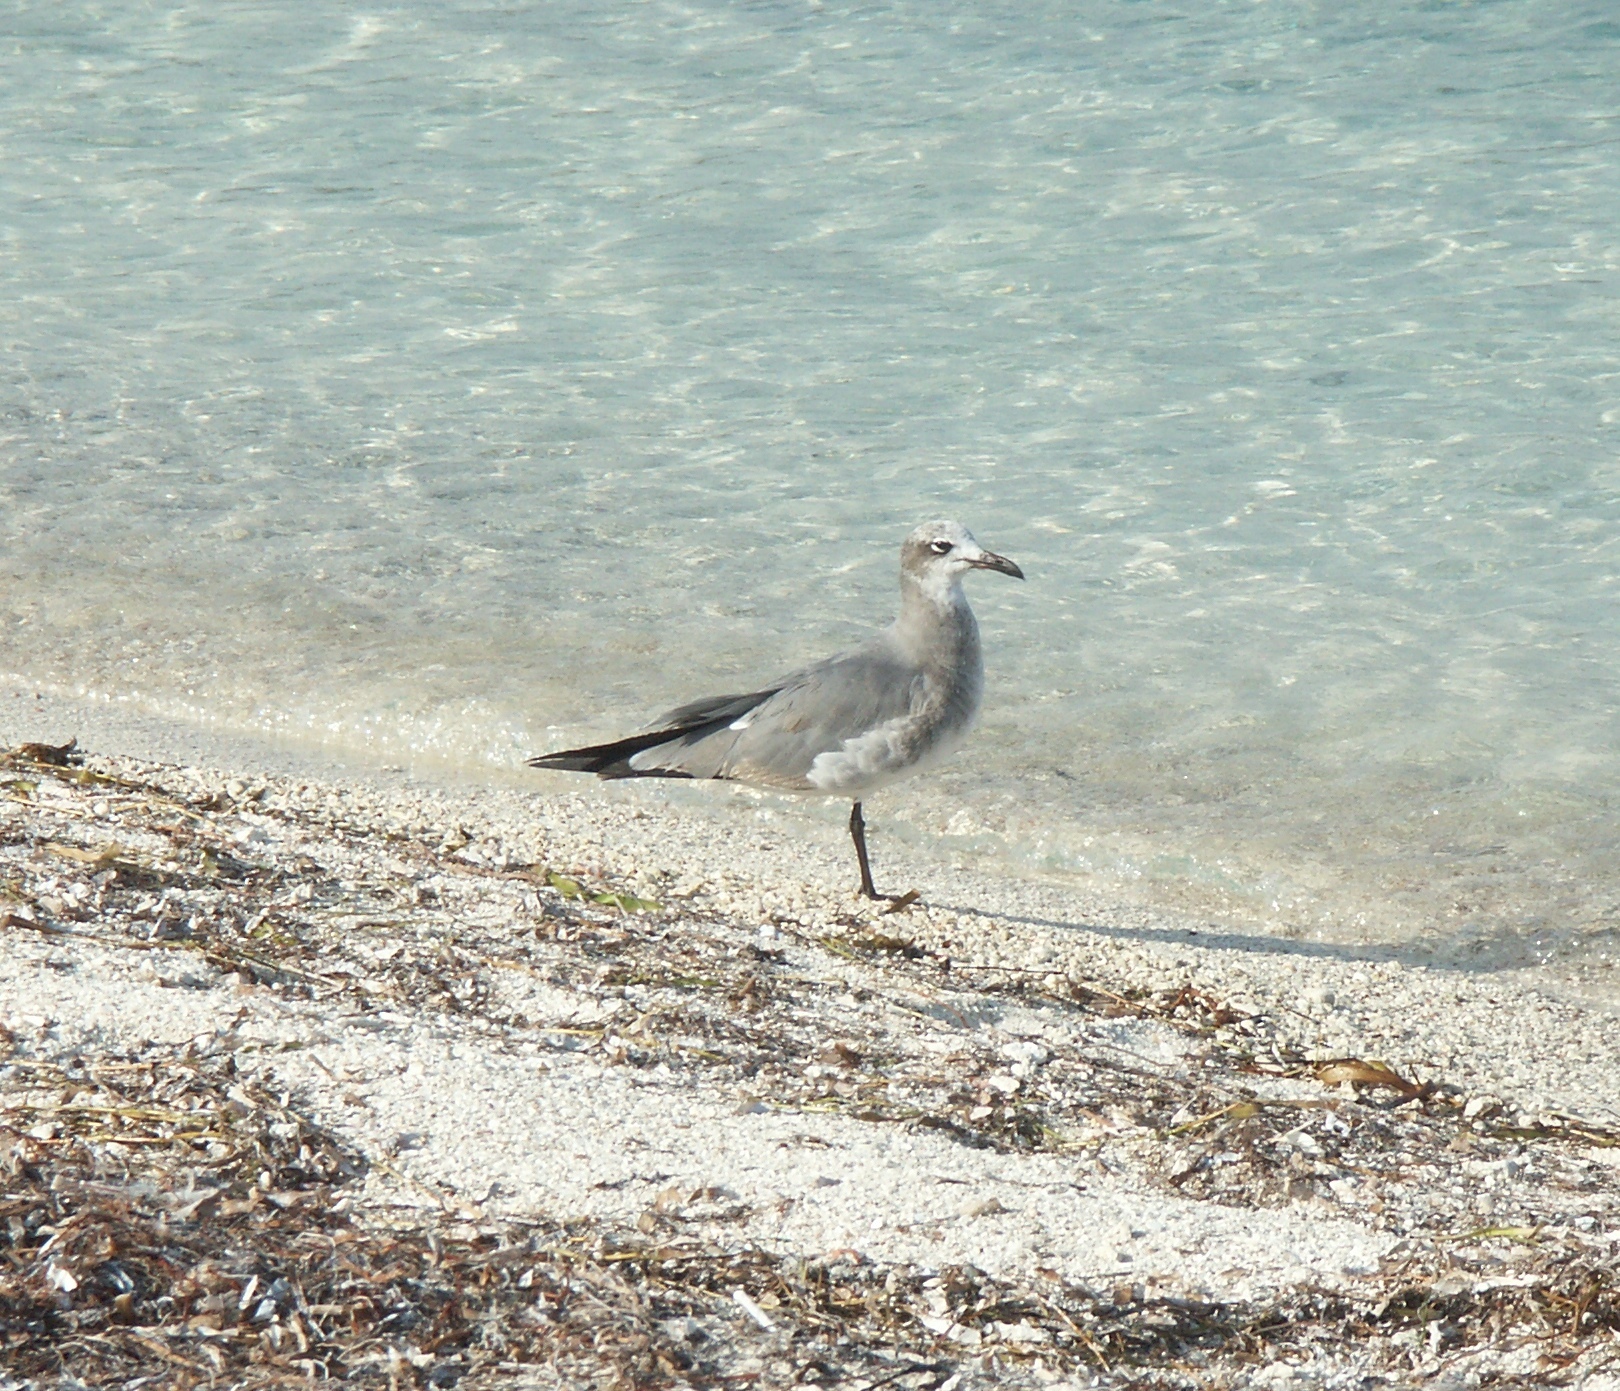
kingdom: Animalia
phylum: Chordata
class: Aves
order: Charadriiformes
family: Laridae
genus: Leucophaeus
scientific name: Leucophaeus atricilla
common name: Laughing gull
